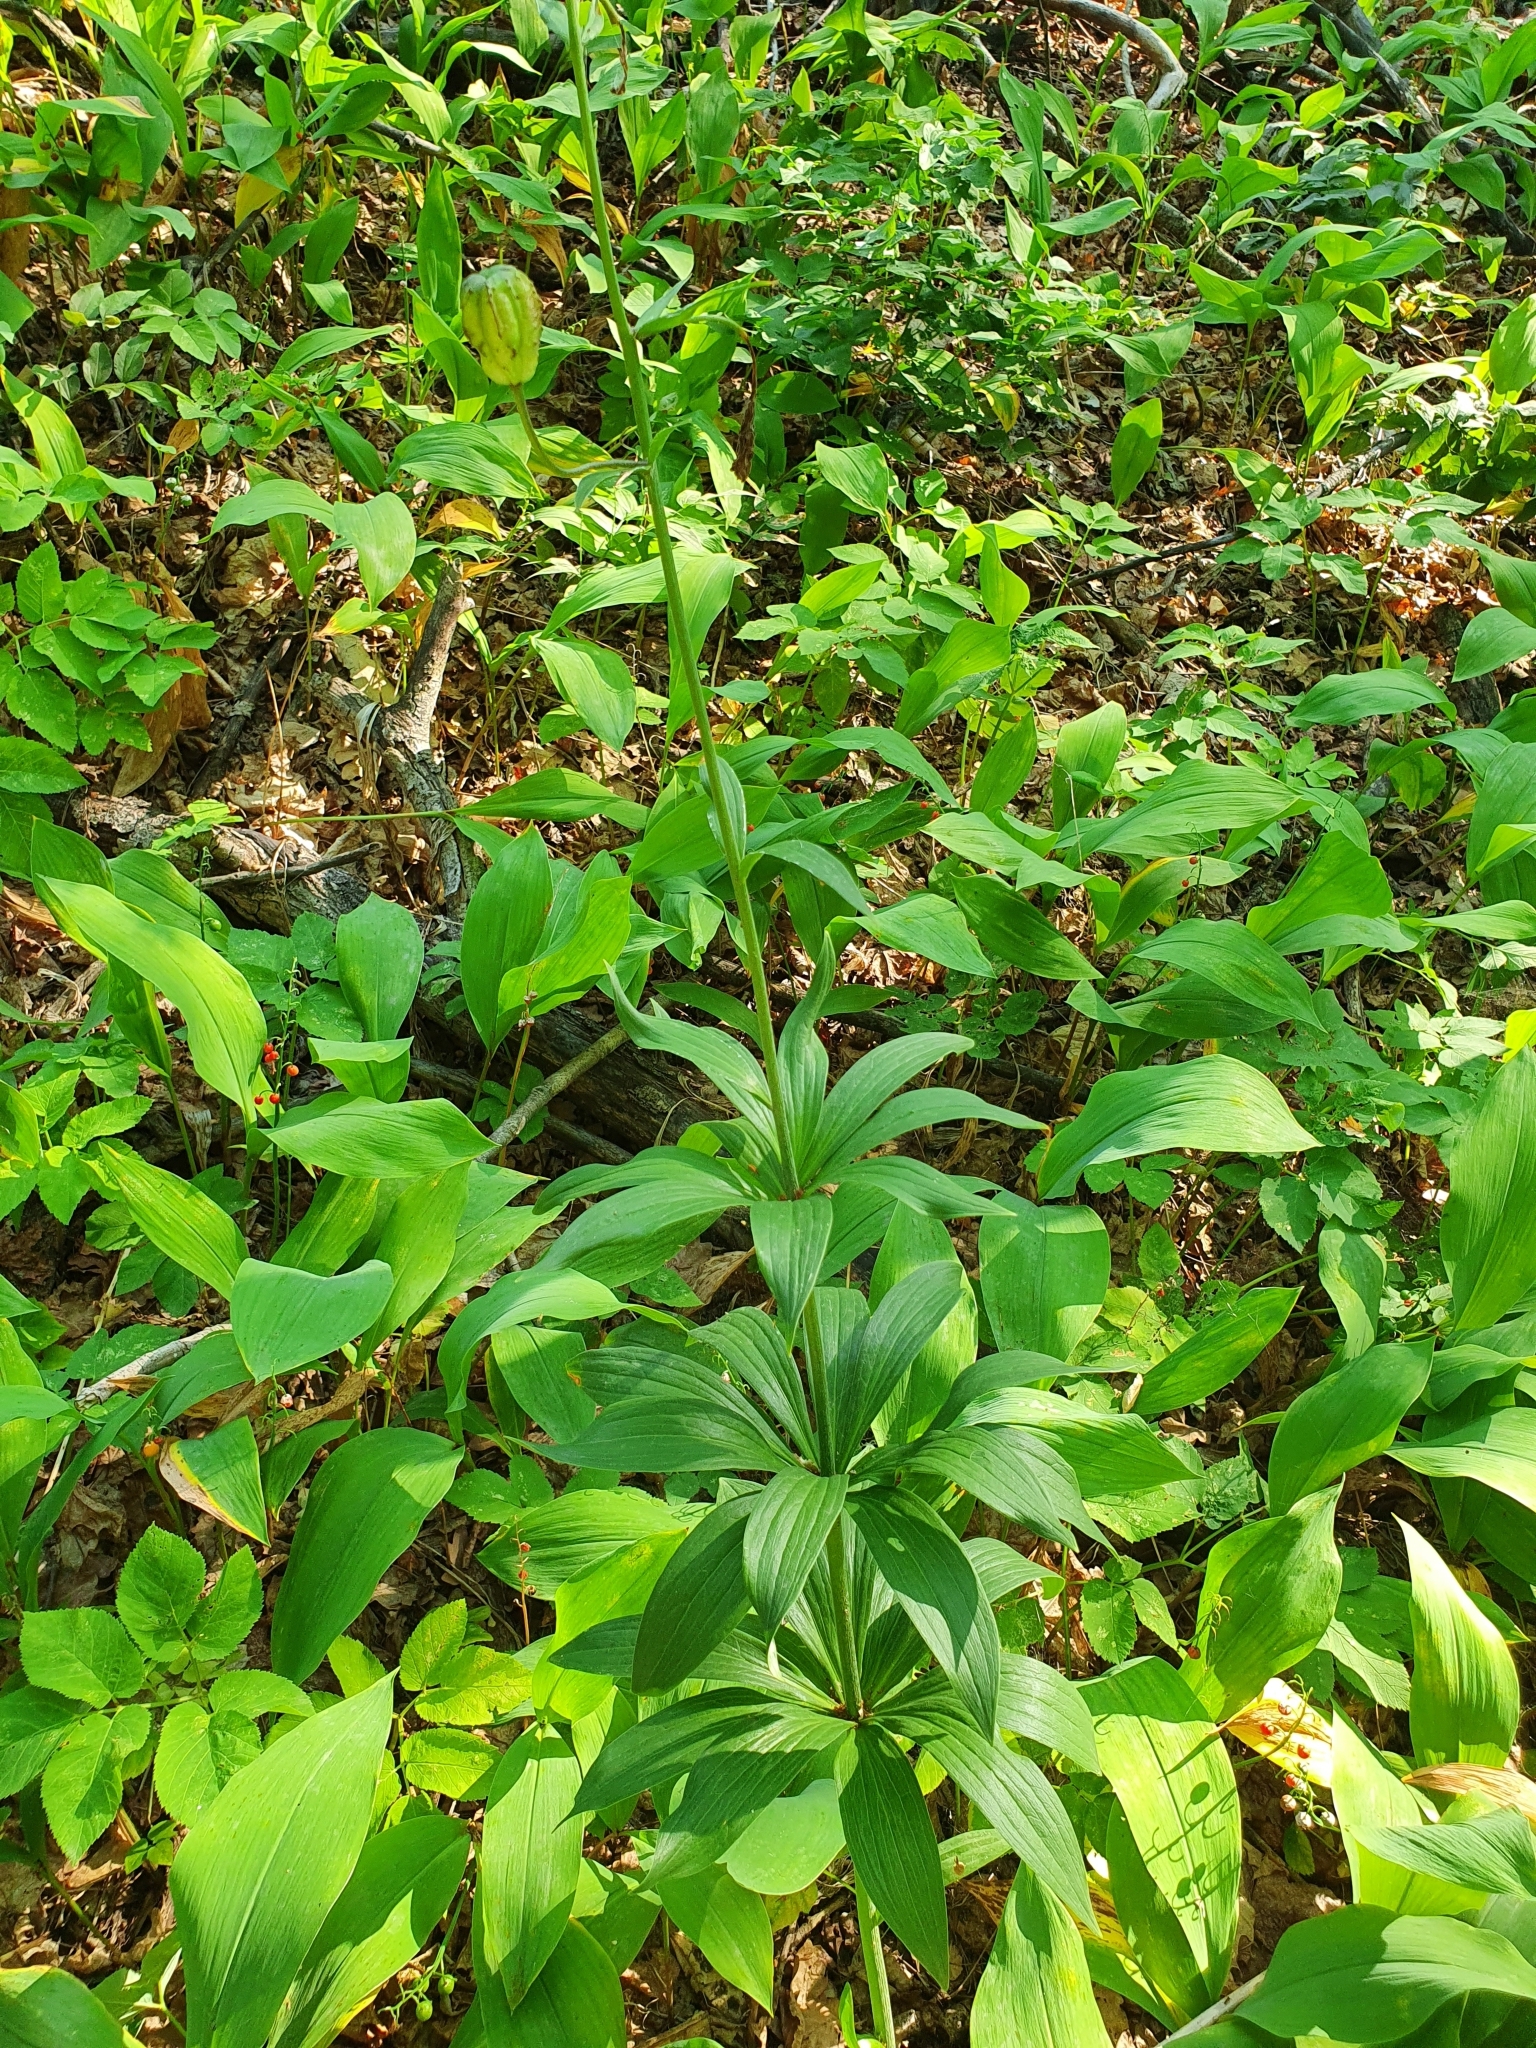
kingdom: Plantae
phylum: Tracheophyta
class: Liliopsida
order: Liliales
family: Liliaceae
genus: Lilium
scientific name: Lilium martagon
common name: Martagon lily
